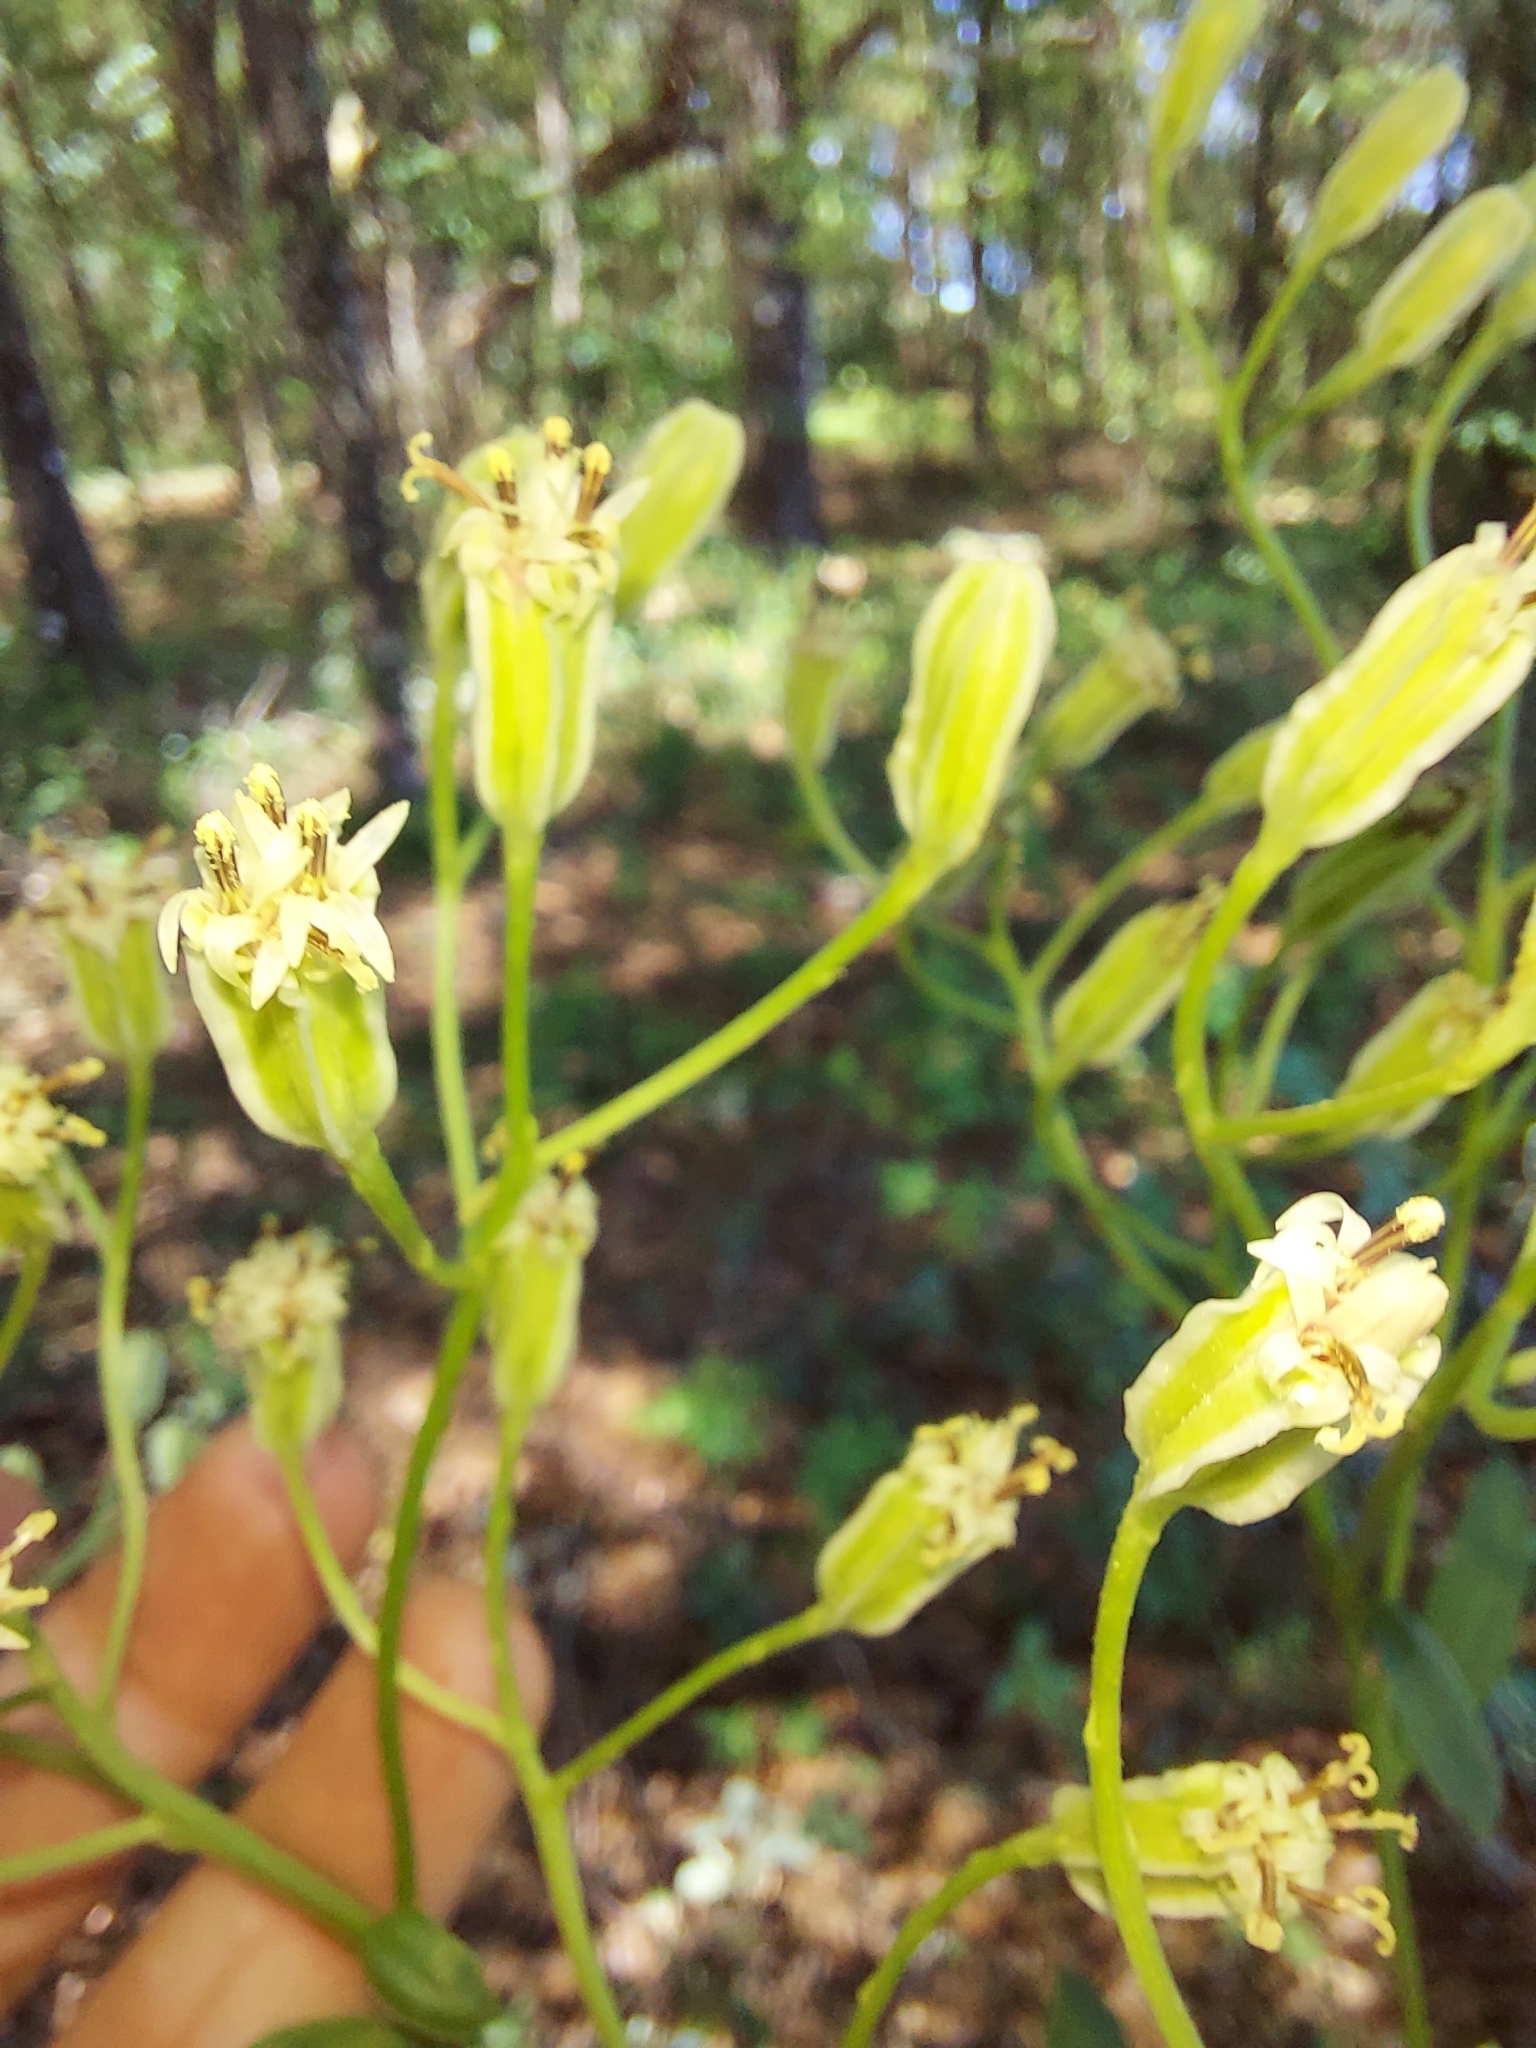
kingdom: Plantae
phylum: Tracheophyta
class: Magnoliopsida
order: Asterales
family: Asteraceae
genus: Arnoglossum
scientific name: Arnoglossum floridanum
